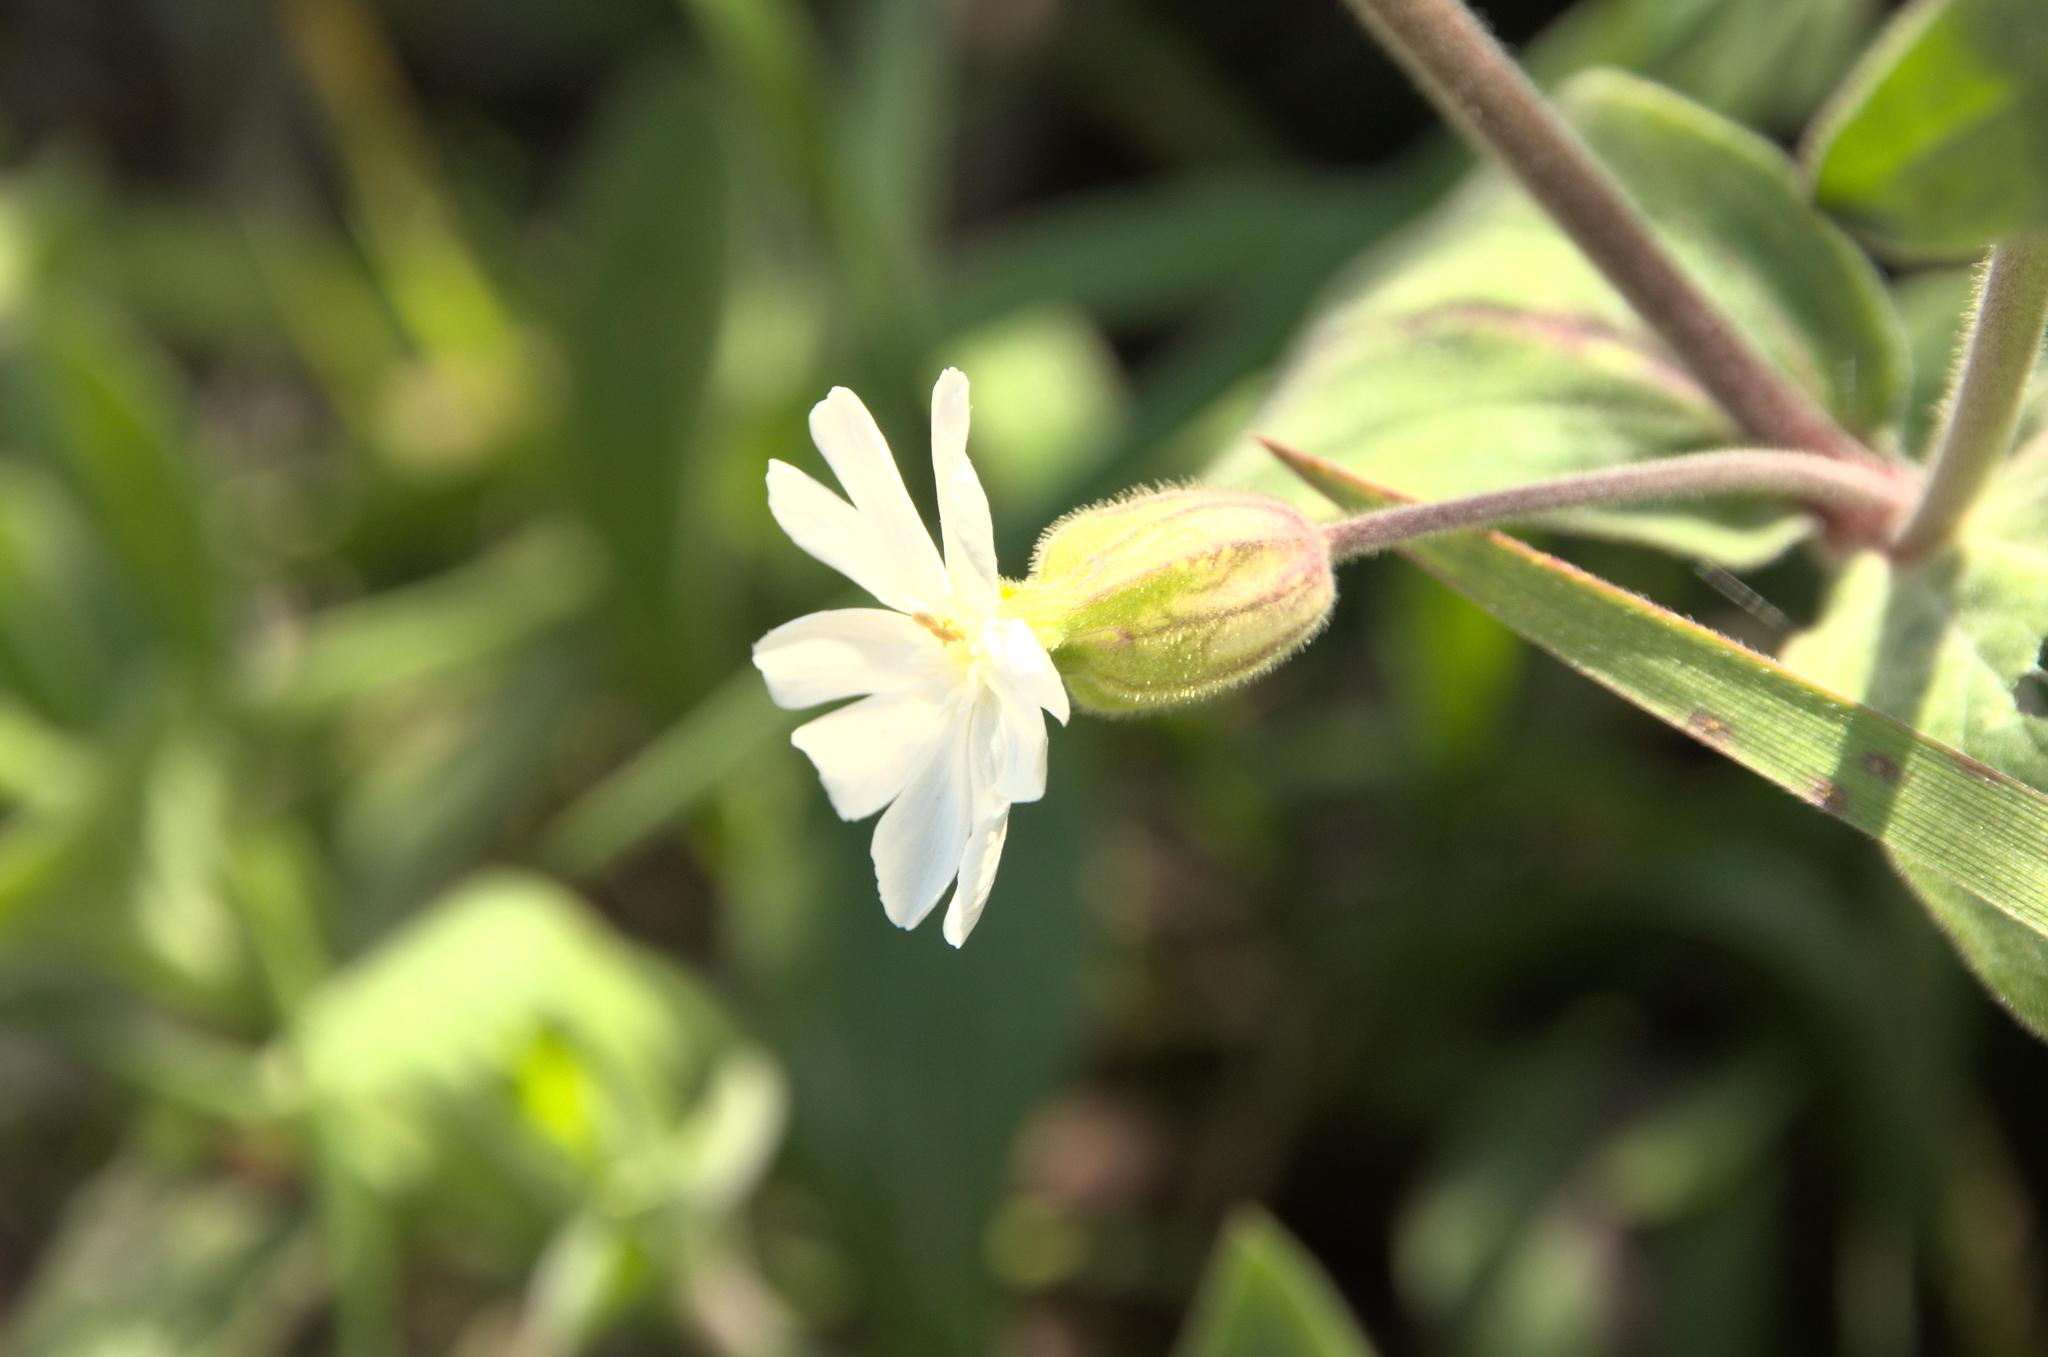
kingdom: Plantae
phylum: Tracheophyta
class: Magnoliopsida
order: Caryophyllales
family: Caryophyllaceae
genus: Silene
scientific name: Silene latifolia
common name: White campion
